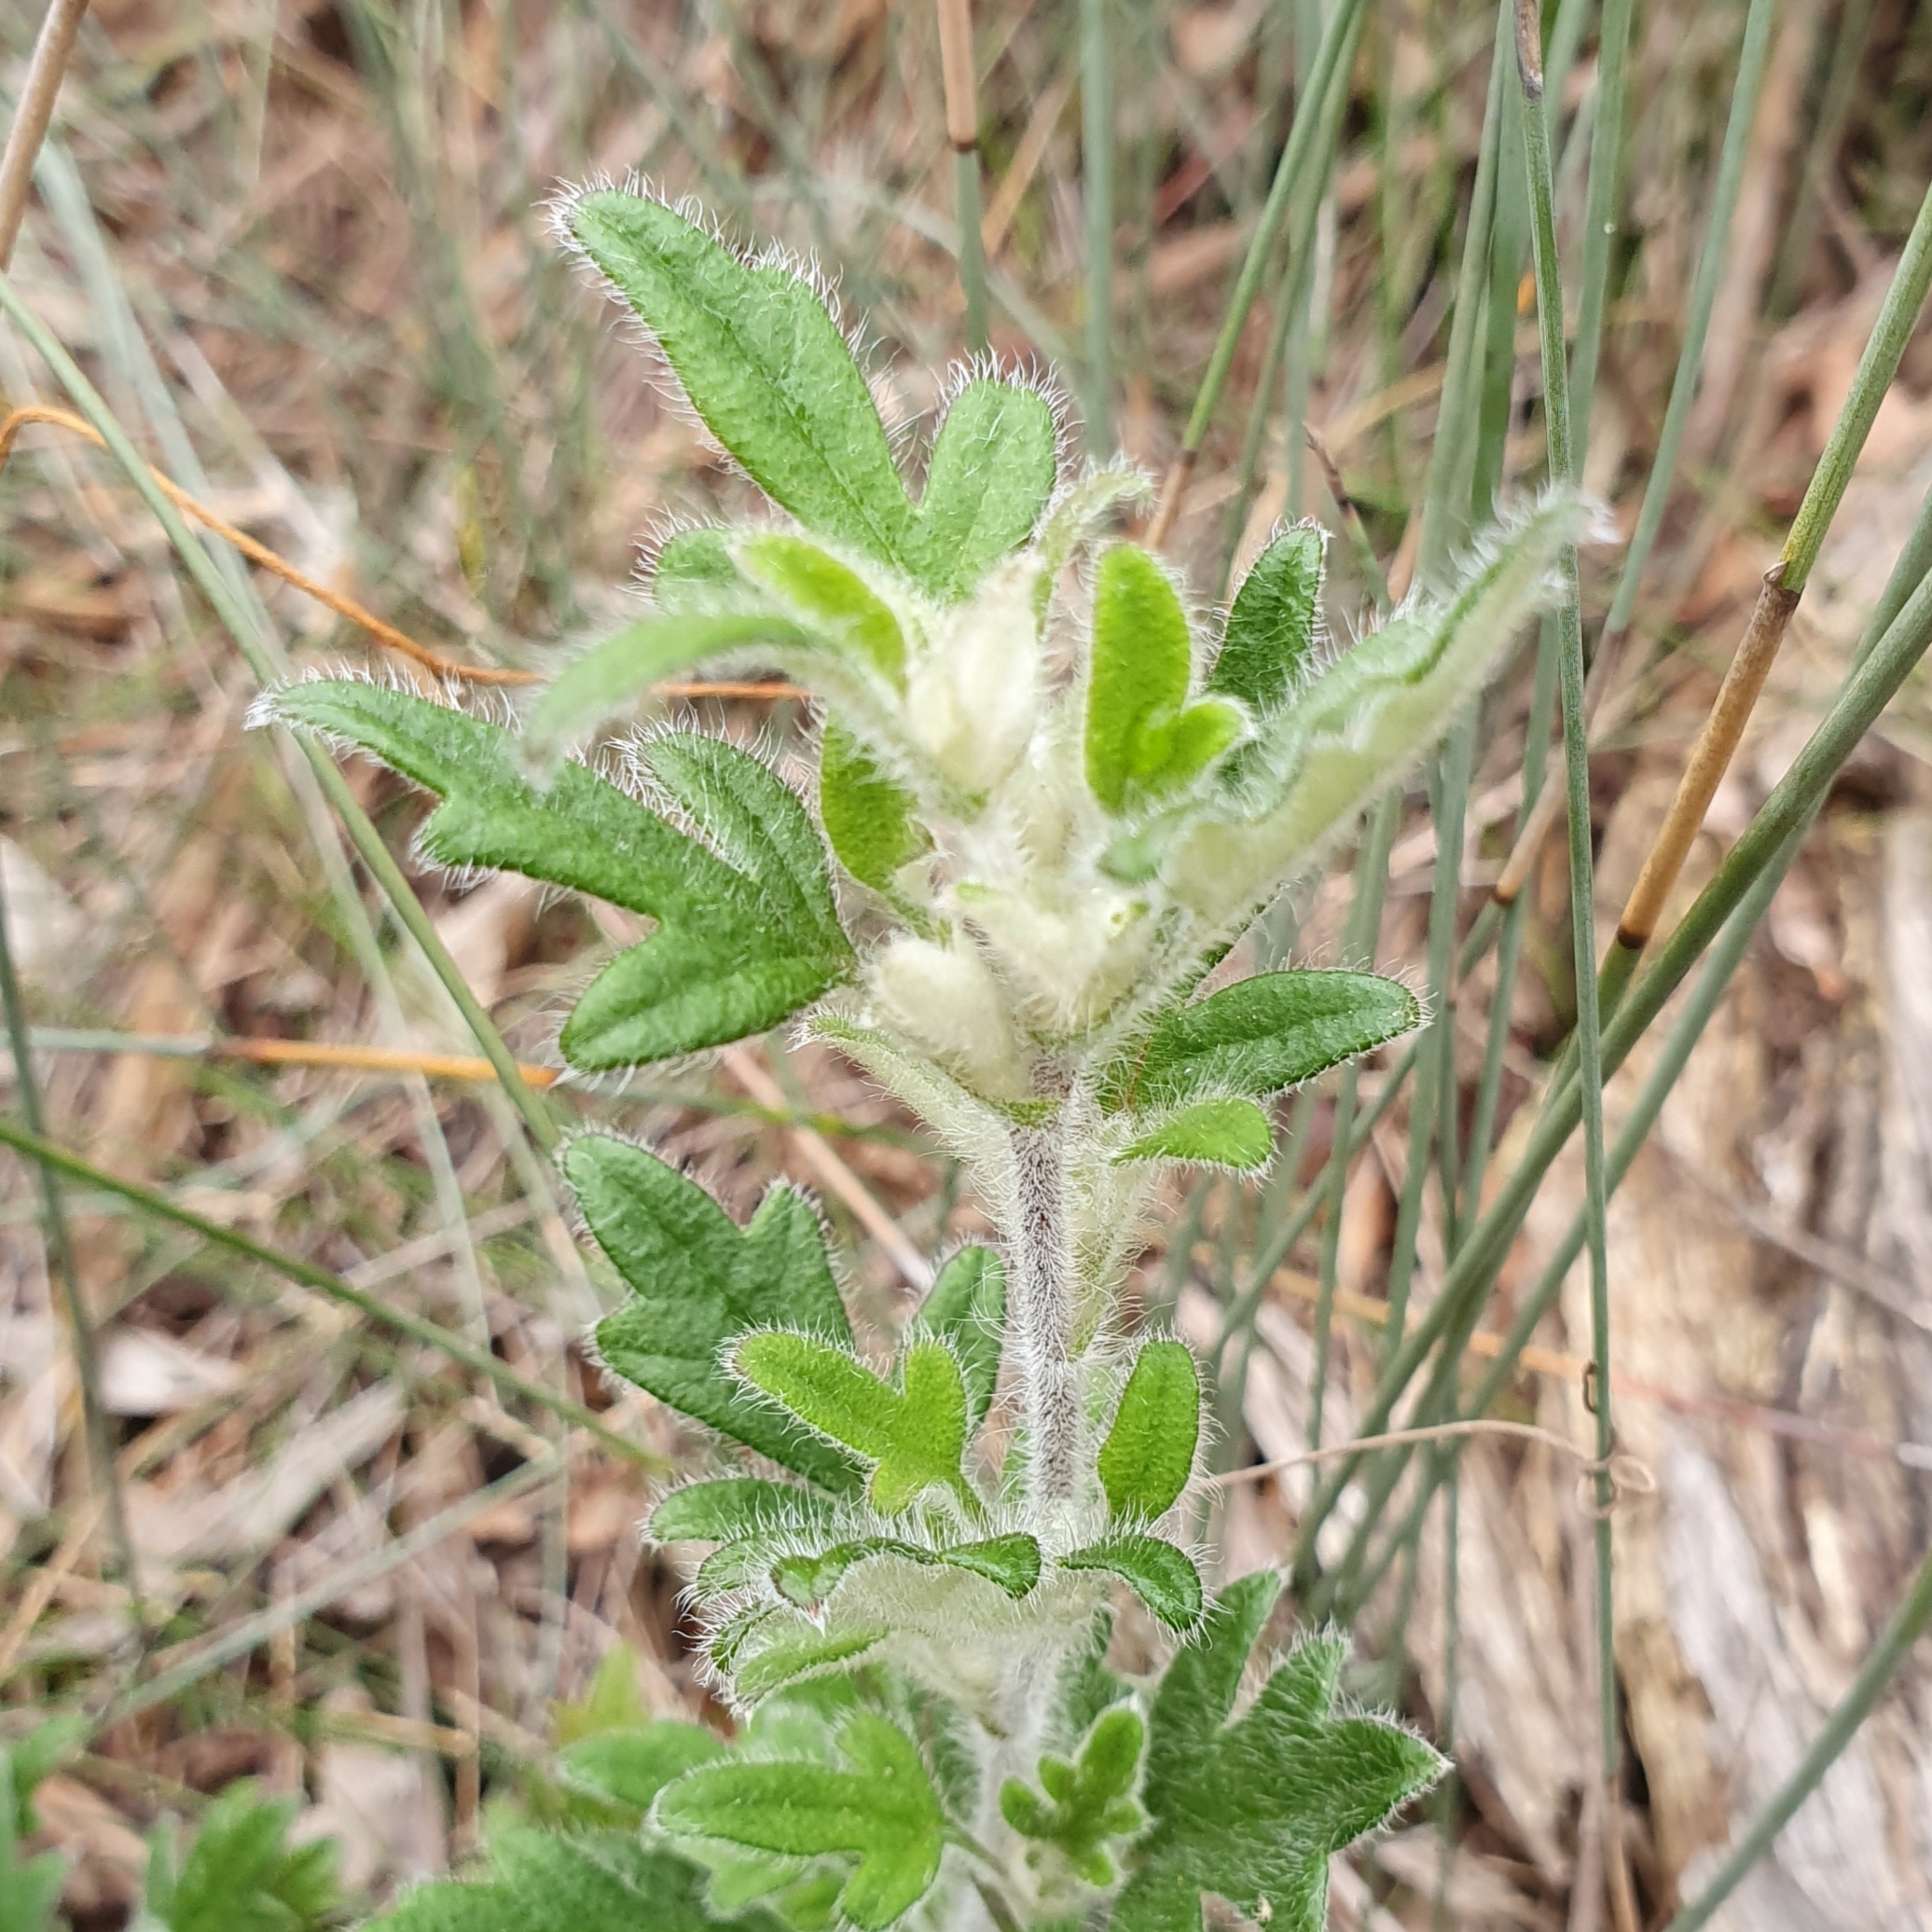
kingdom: Plantae
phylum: Tracheophyta
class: Magnoliopsida
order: Apiales
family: Apiaceae
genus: Xanthosia
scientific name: Xanthosia pilosa
